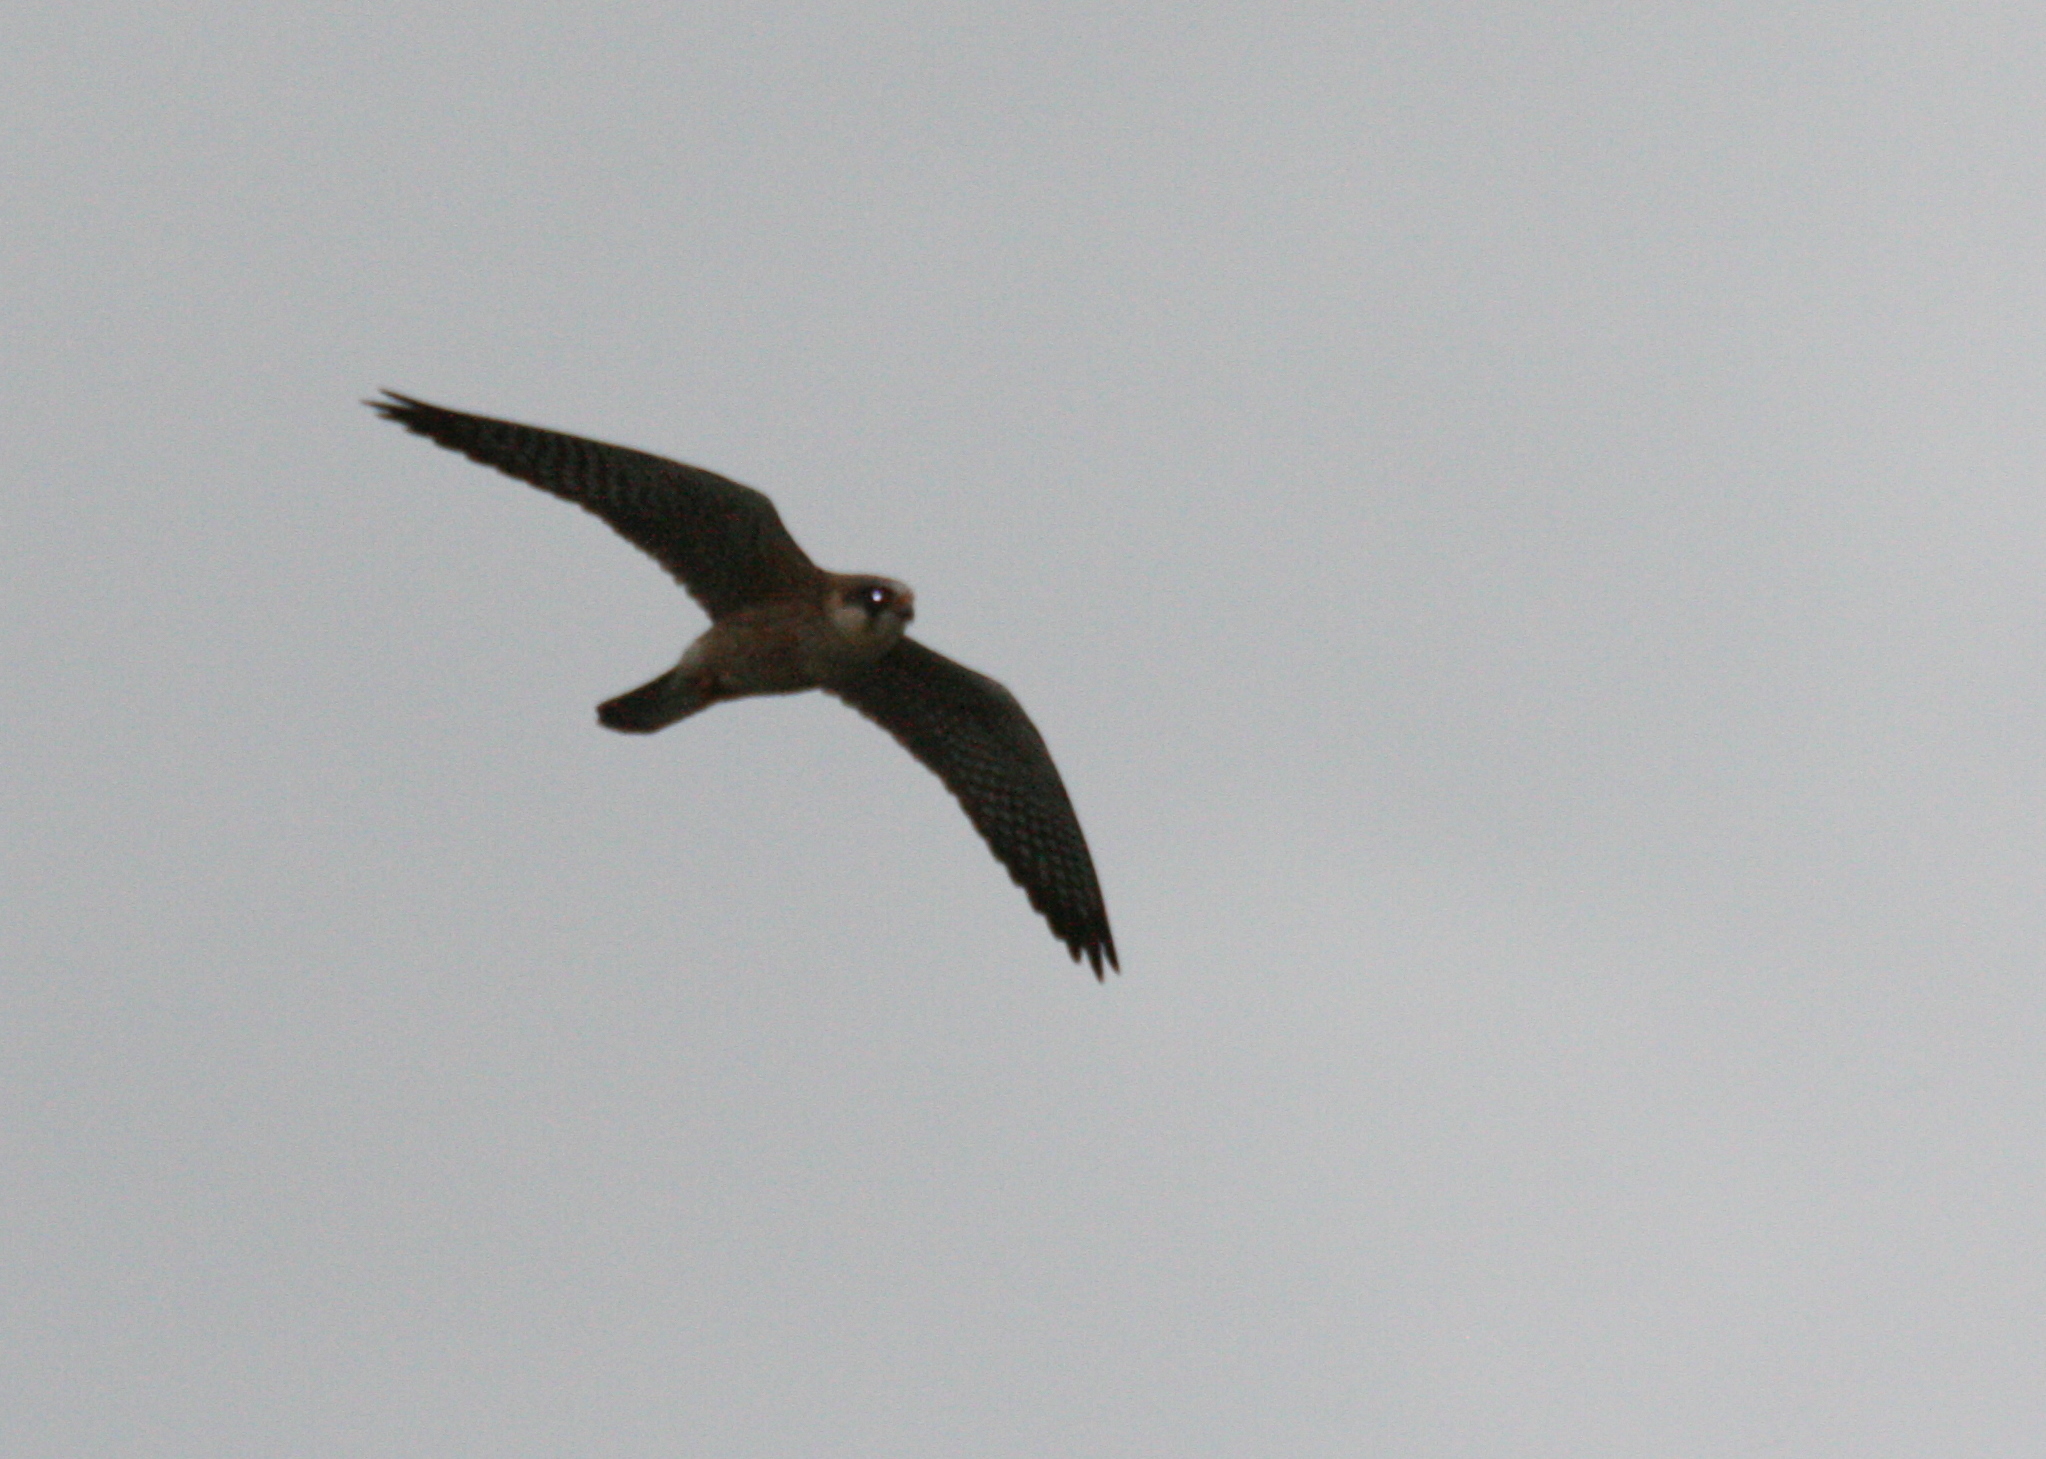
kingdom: Animalia
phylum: Chordata
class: Aves
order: Falconiformes
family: Falconidae
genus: Falco
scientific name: Falco vespertinus
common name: Red-footed falcon
